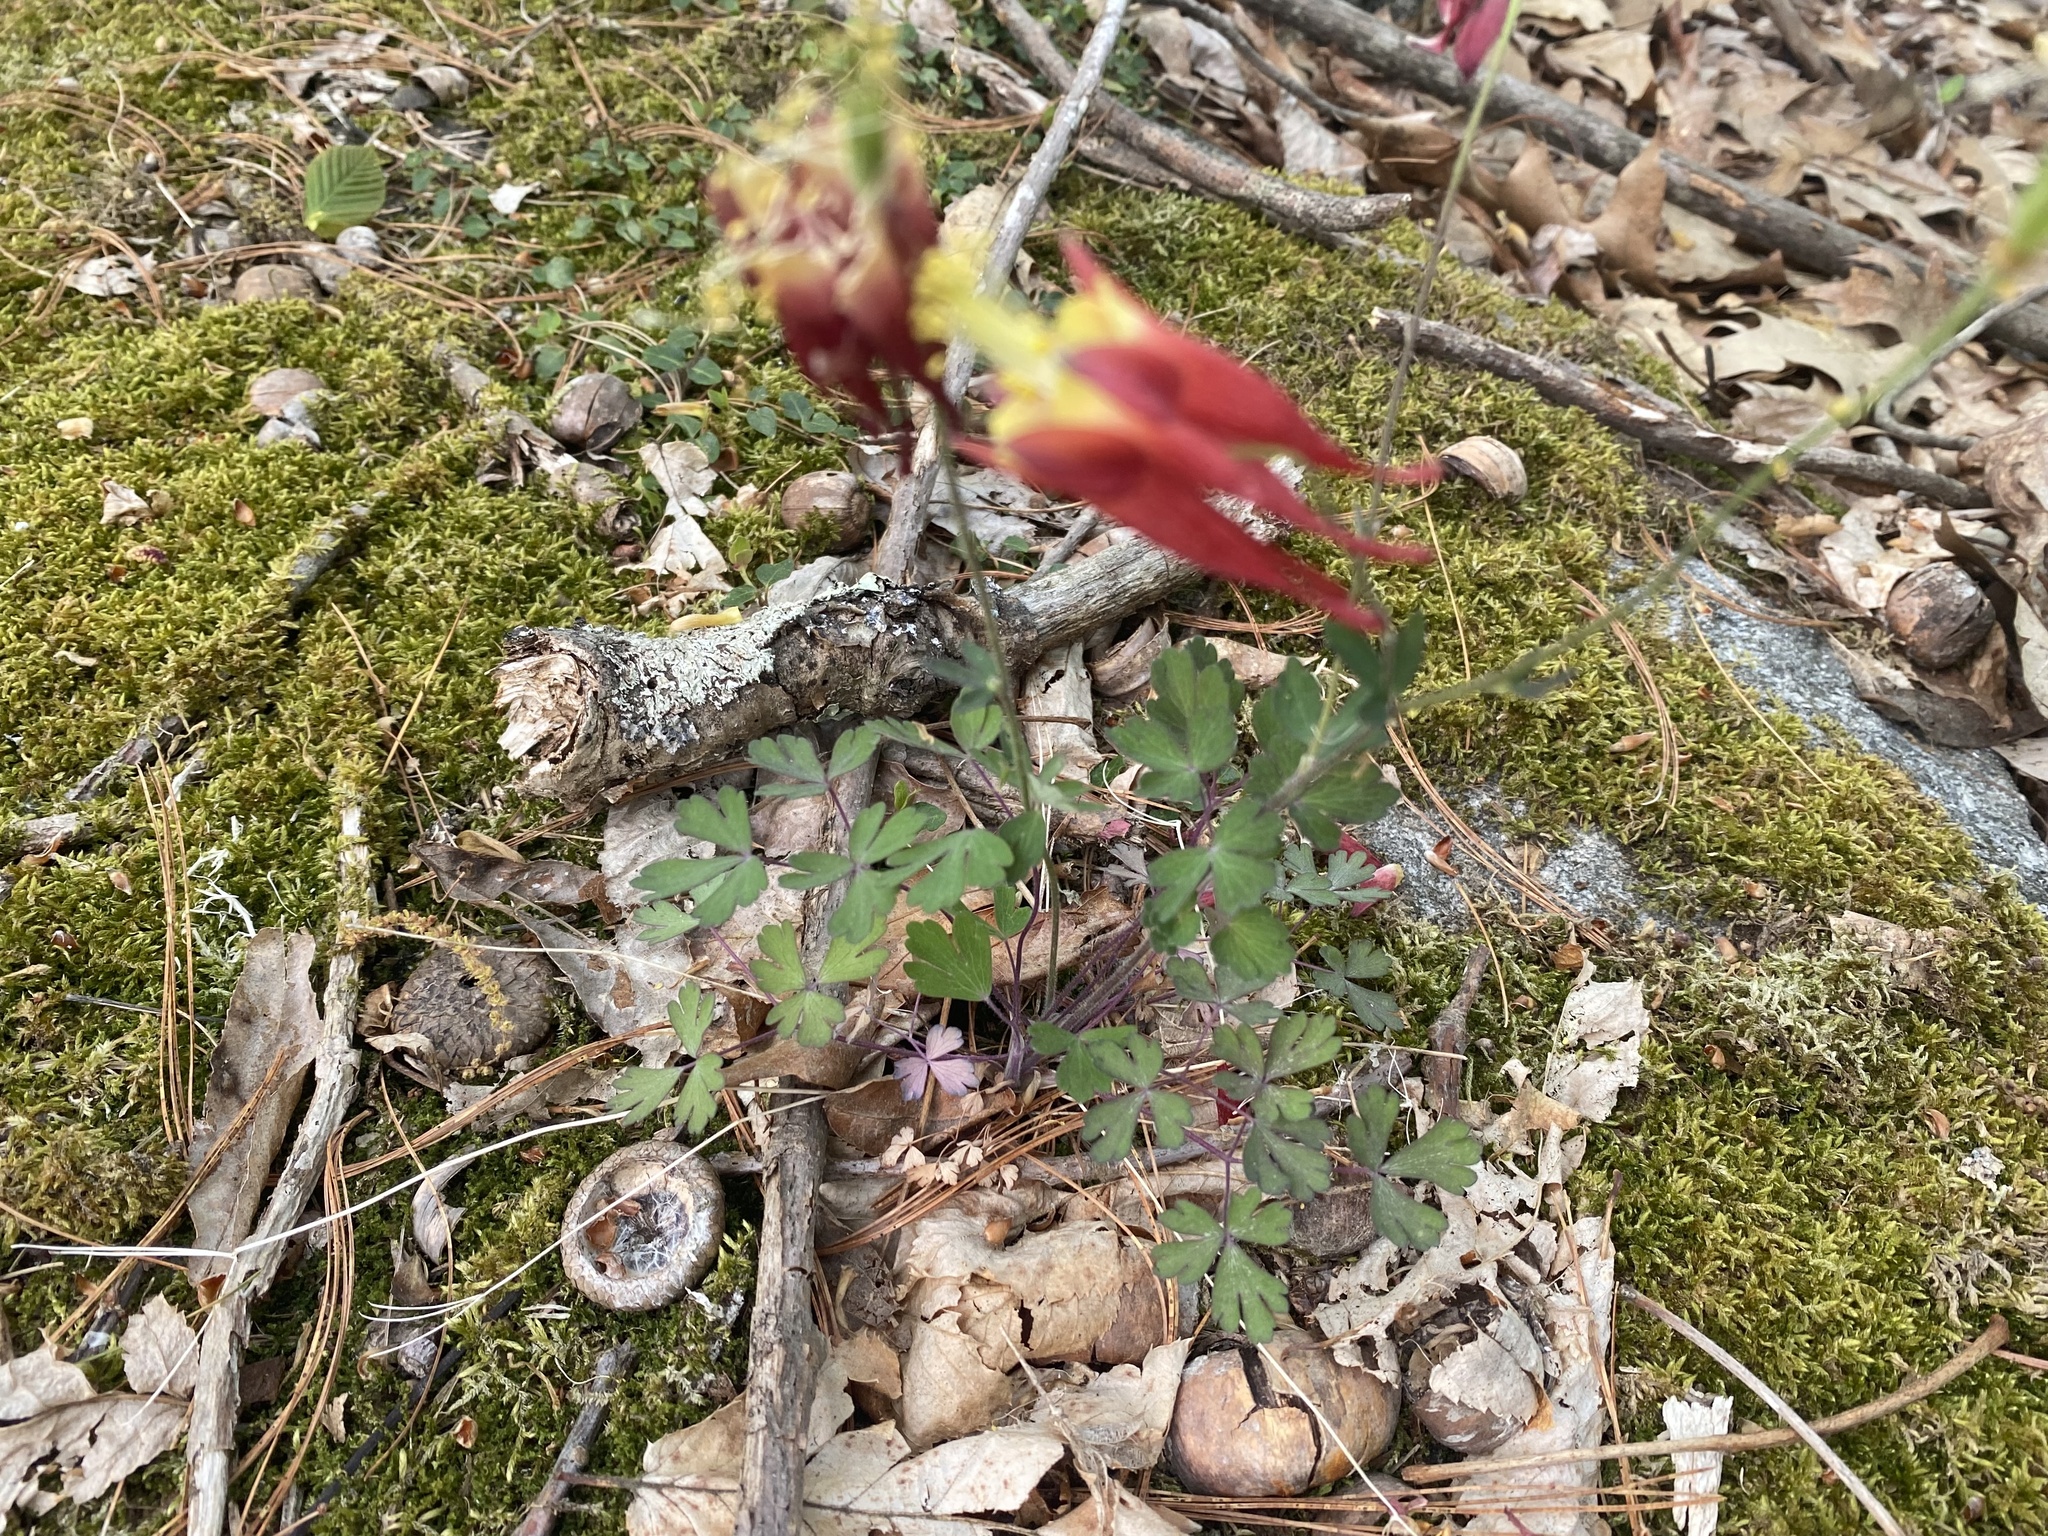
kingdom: Plantae
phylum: Tracheophyta
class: Magnoliopsida
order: Ranunculales
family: Ranunculaceae
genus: Aquilegia
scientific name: Aquilegia canadensis
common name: American columbine
